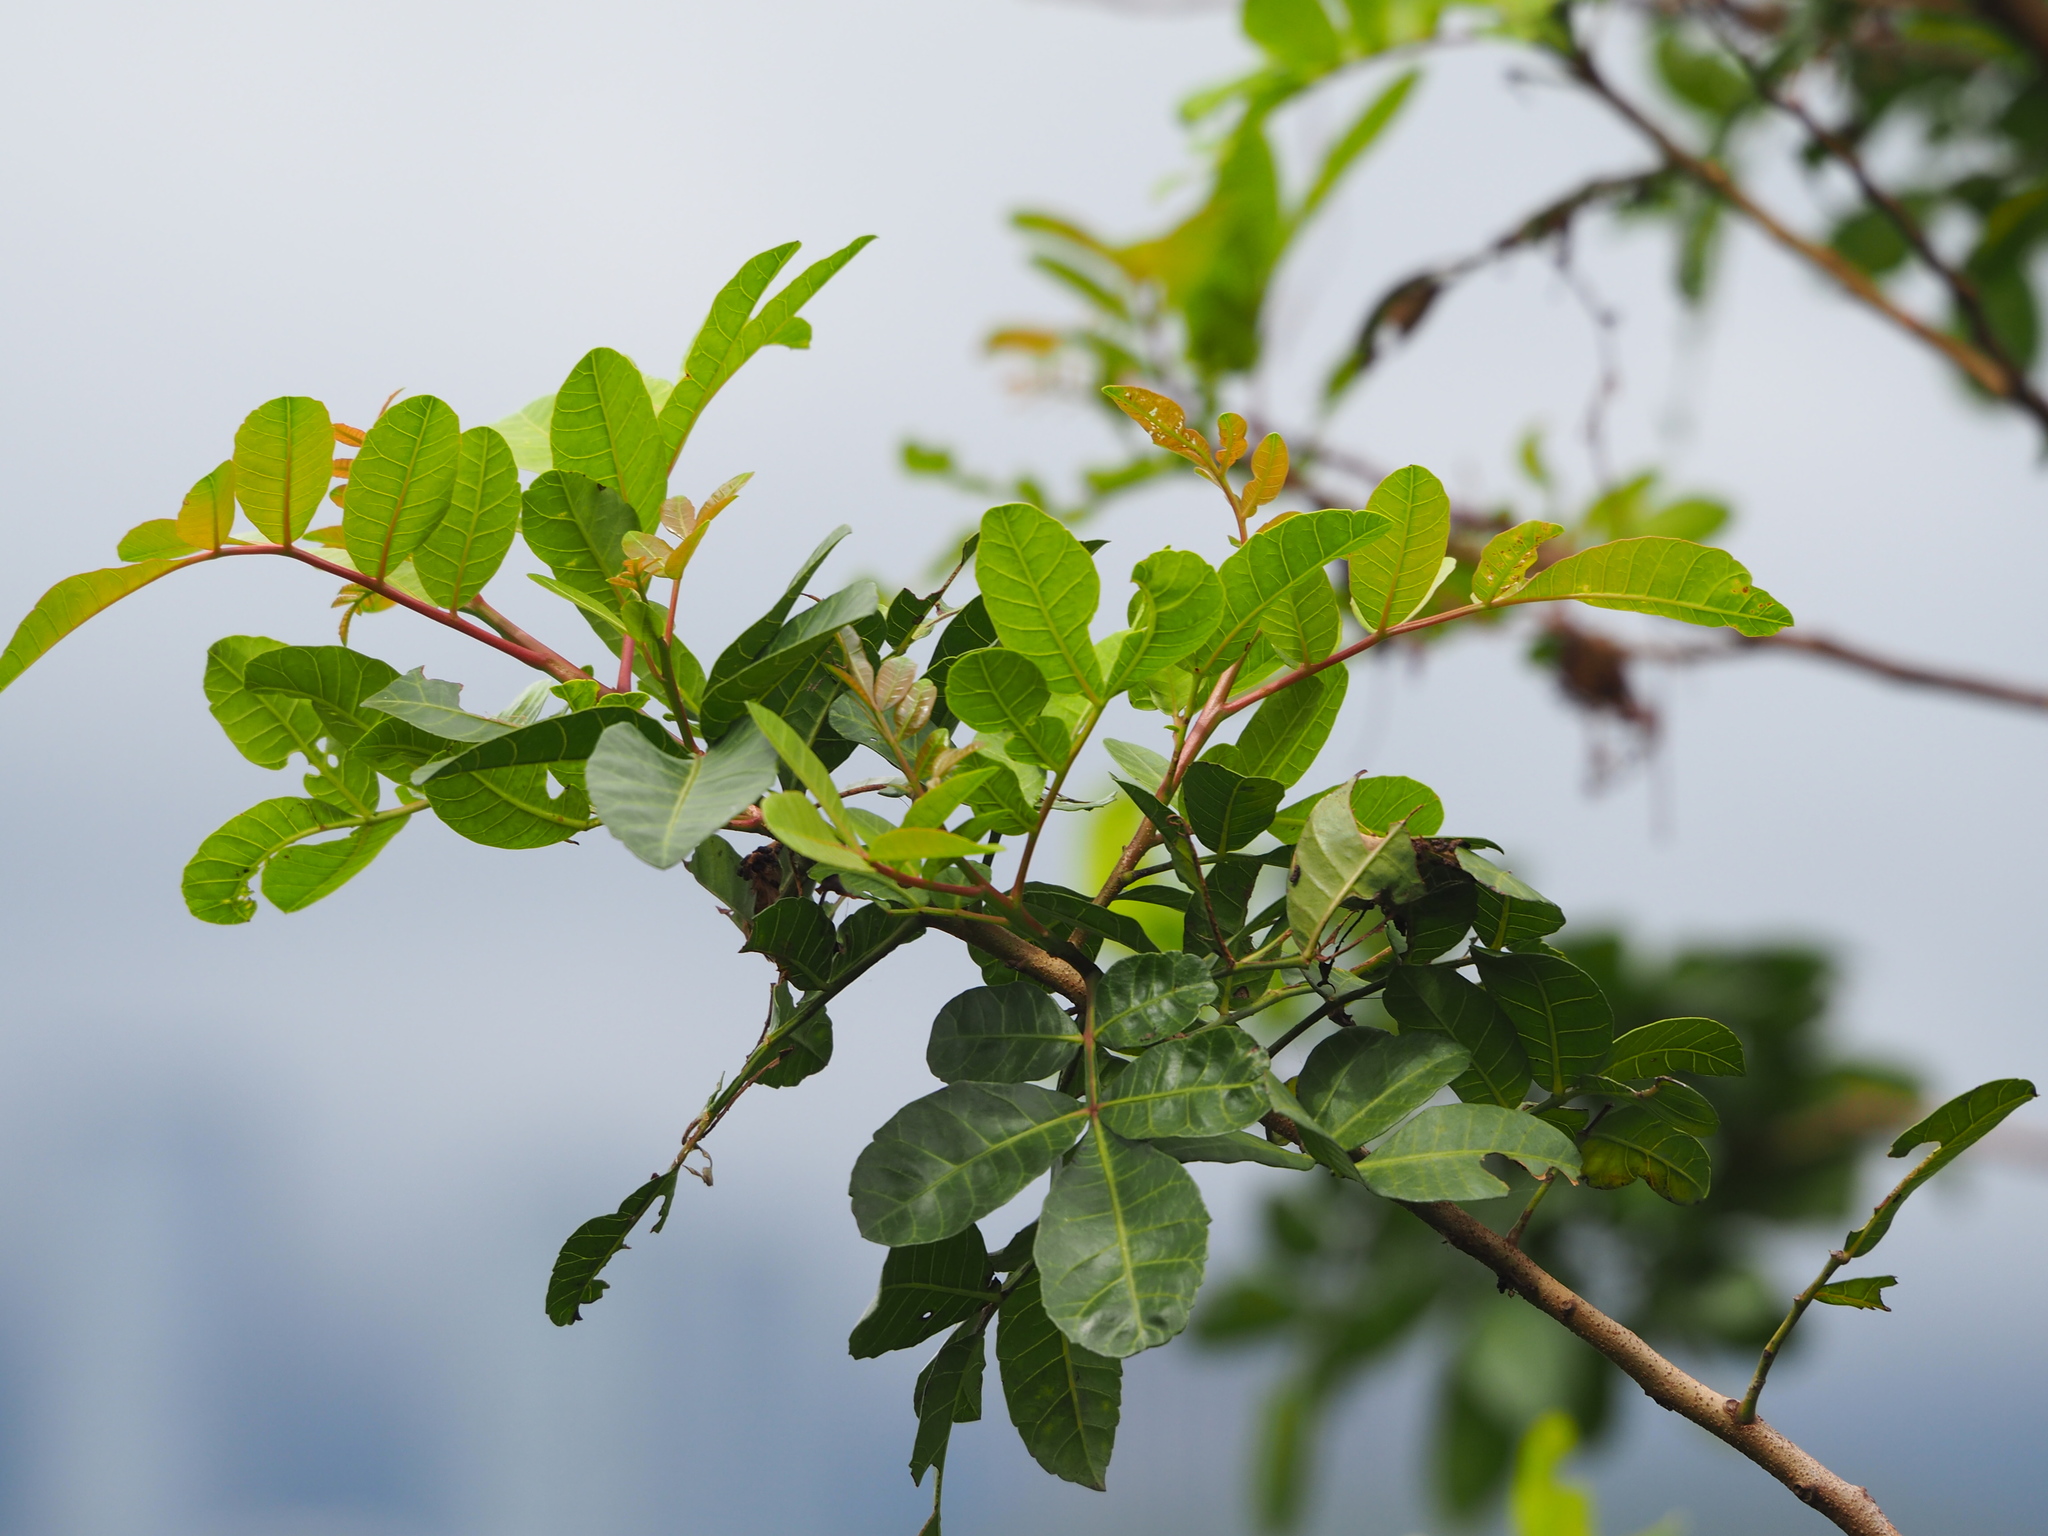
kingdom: Plantae
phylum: Tracheophyta
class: Magnoliopsida
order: Sapindales
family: Anacardiaceae
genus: Schinus
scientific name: Schinus terebinthifolia
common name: Brazilian peppertree
